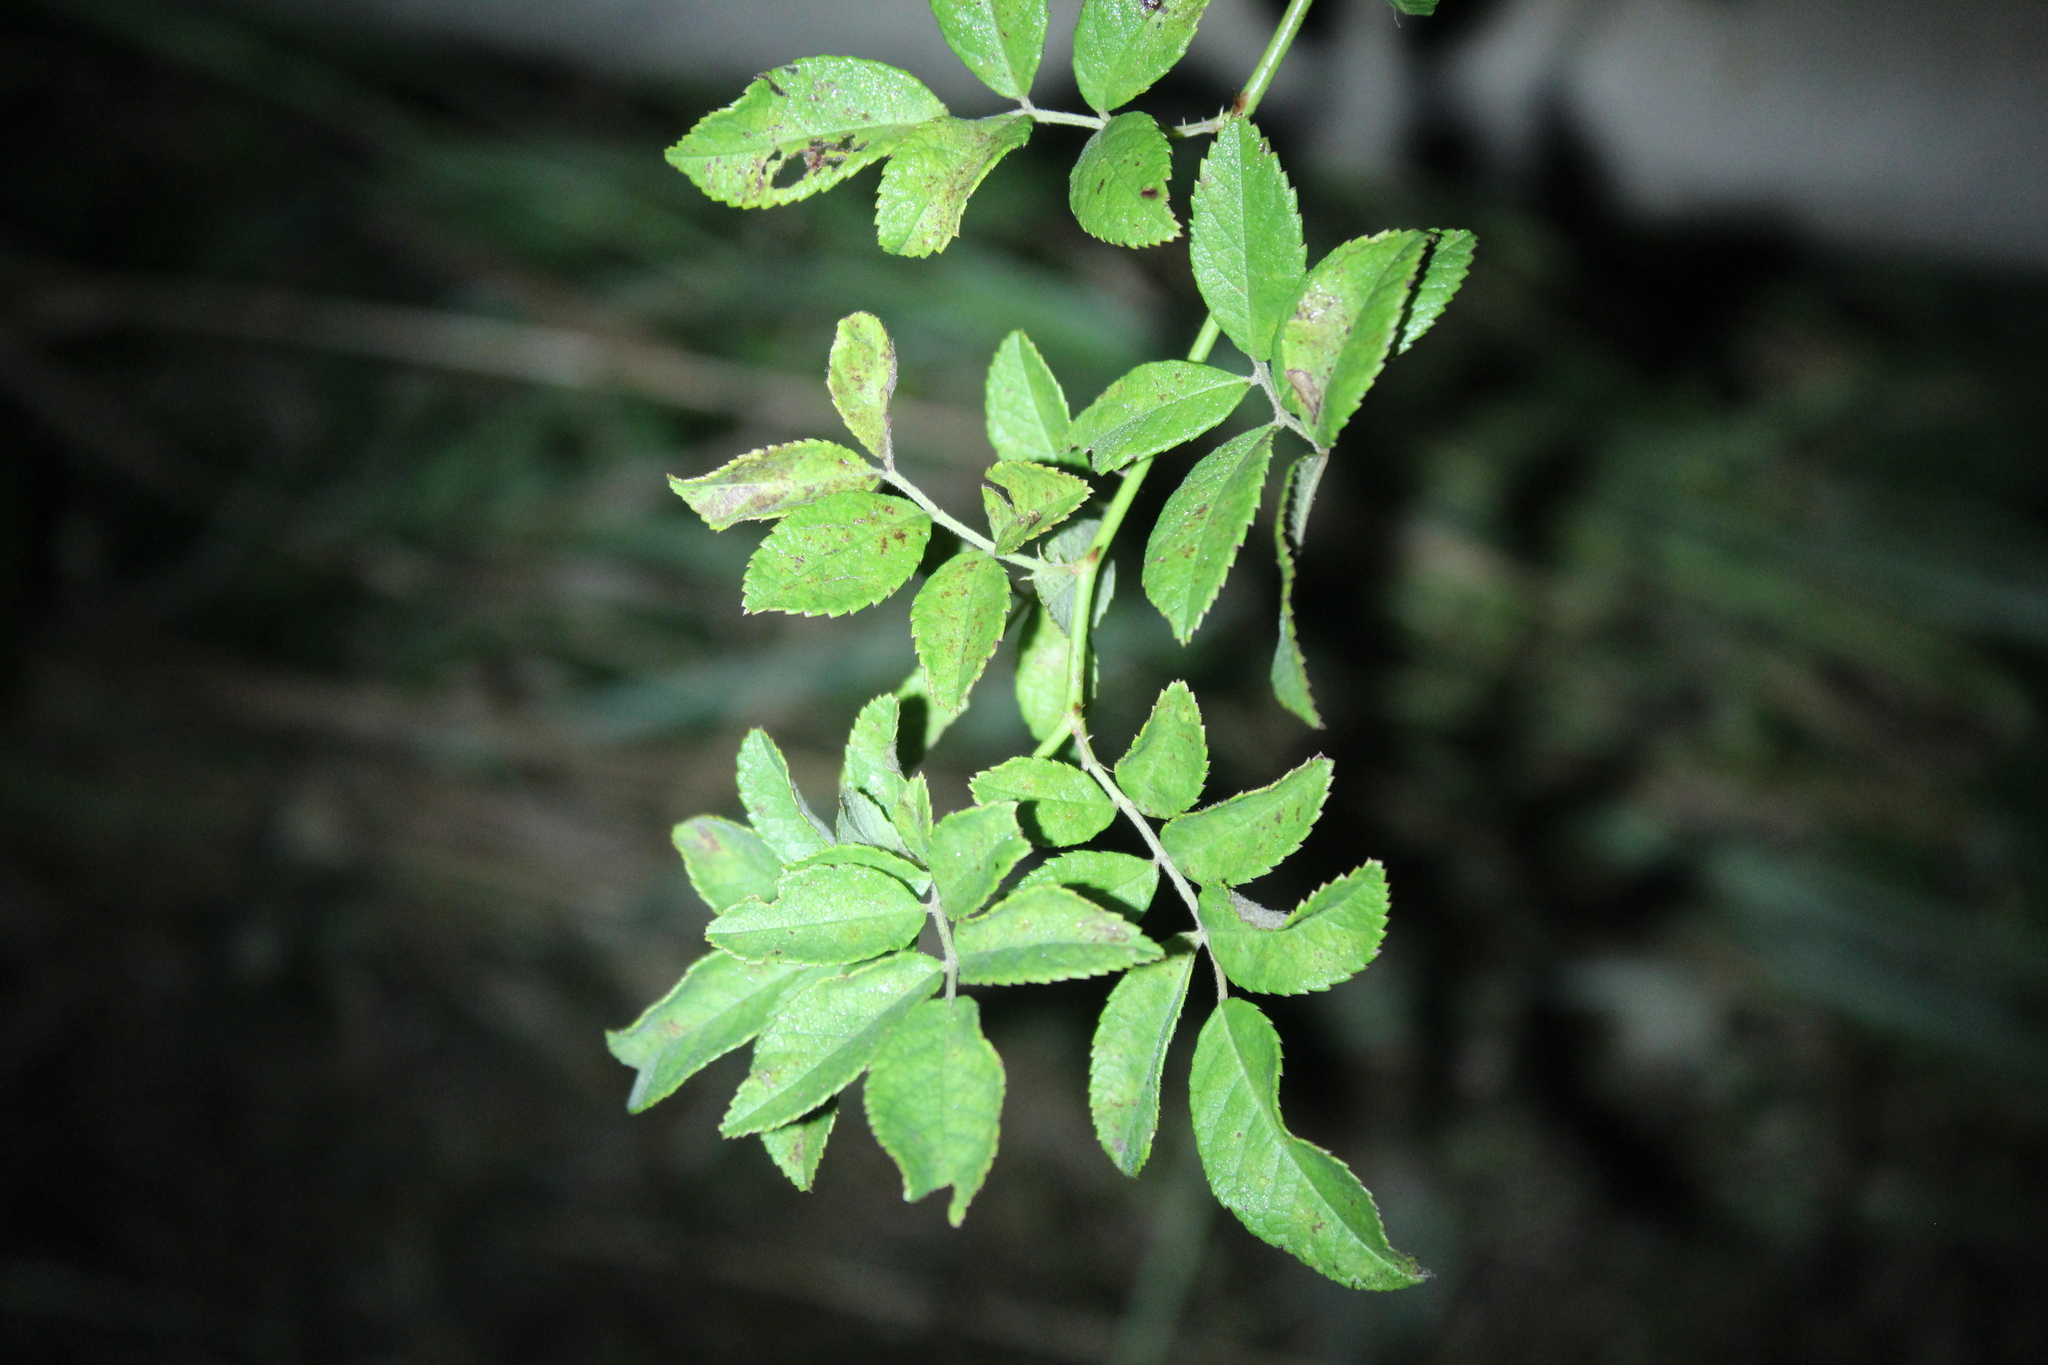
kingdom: Plantae
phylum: Tracheophyta
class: Magnoliopsida
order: Rosales
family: Rosaceae
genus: Rosa
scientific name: Rosa multiflora
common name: Multiflora rose
